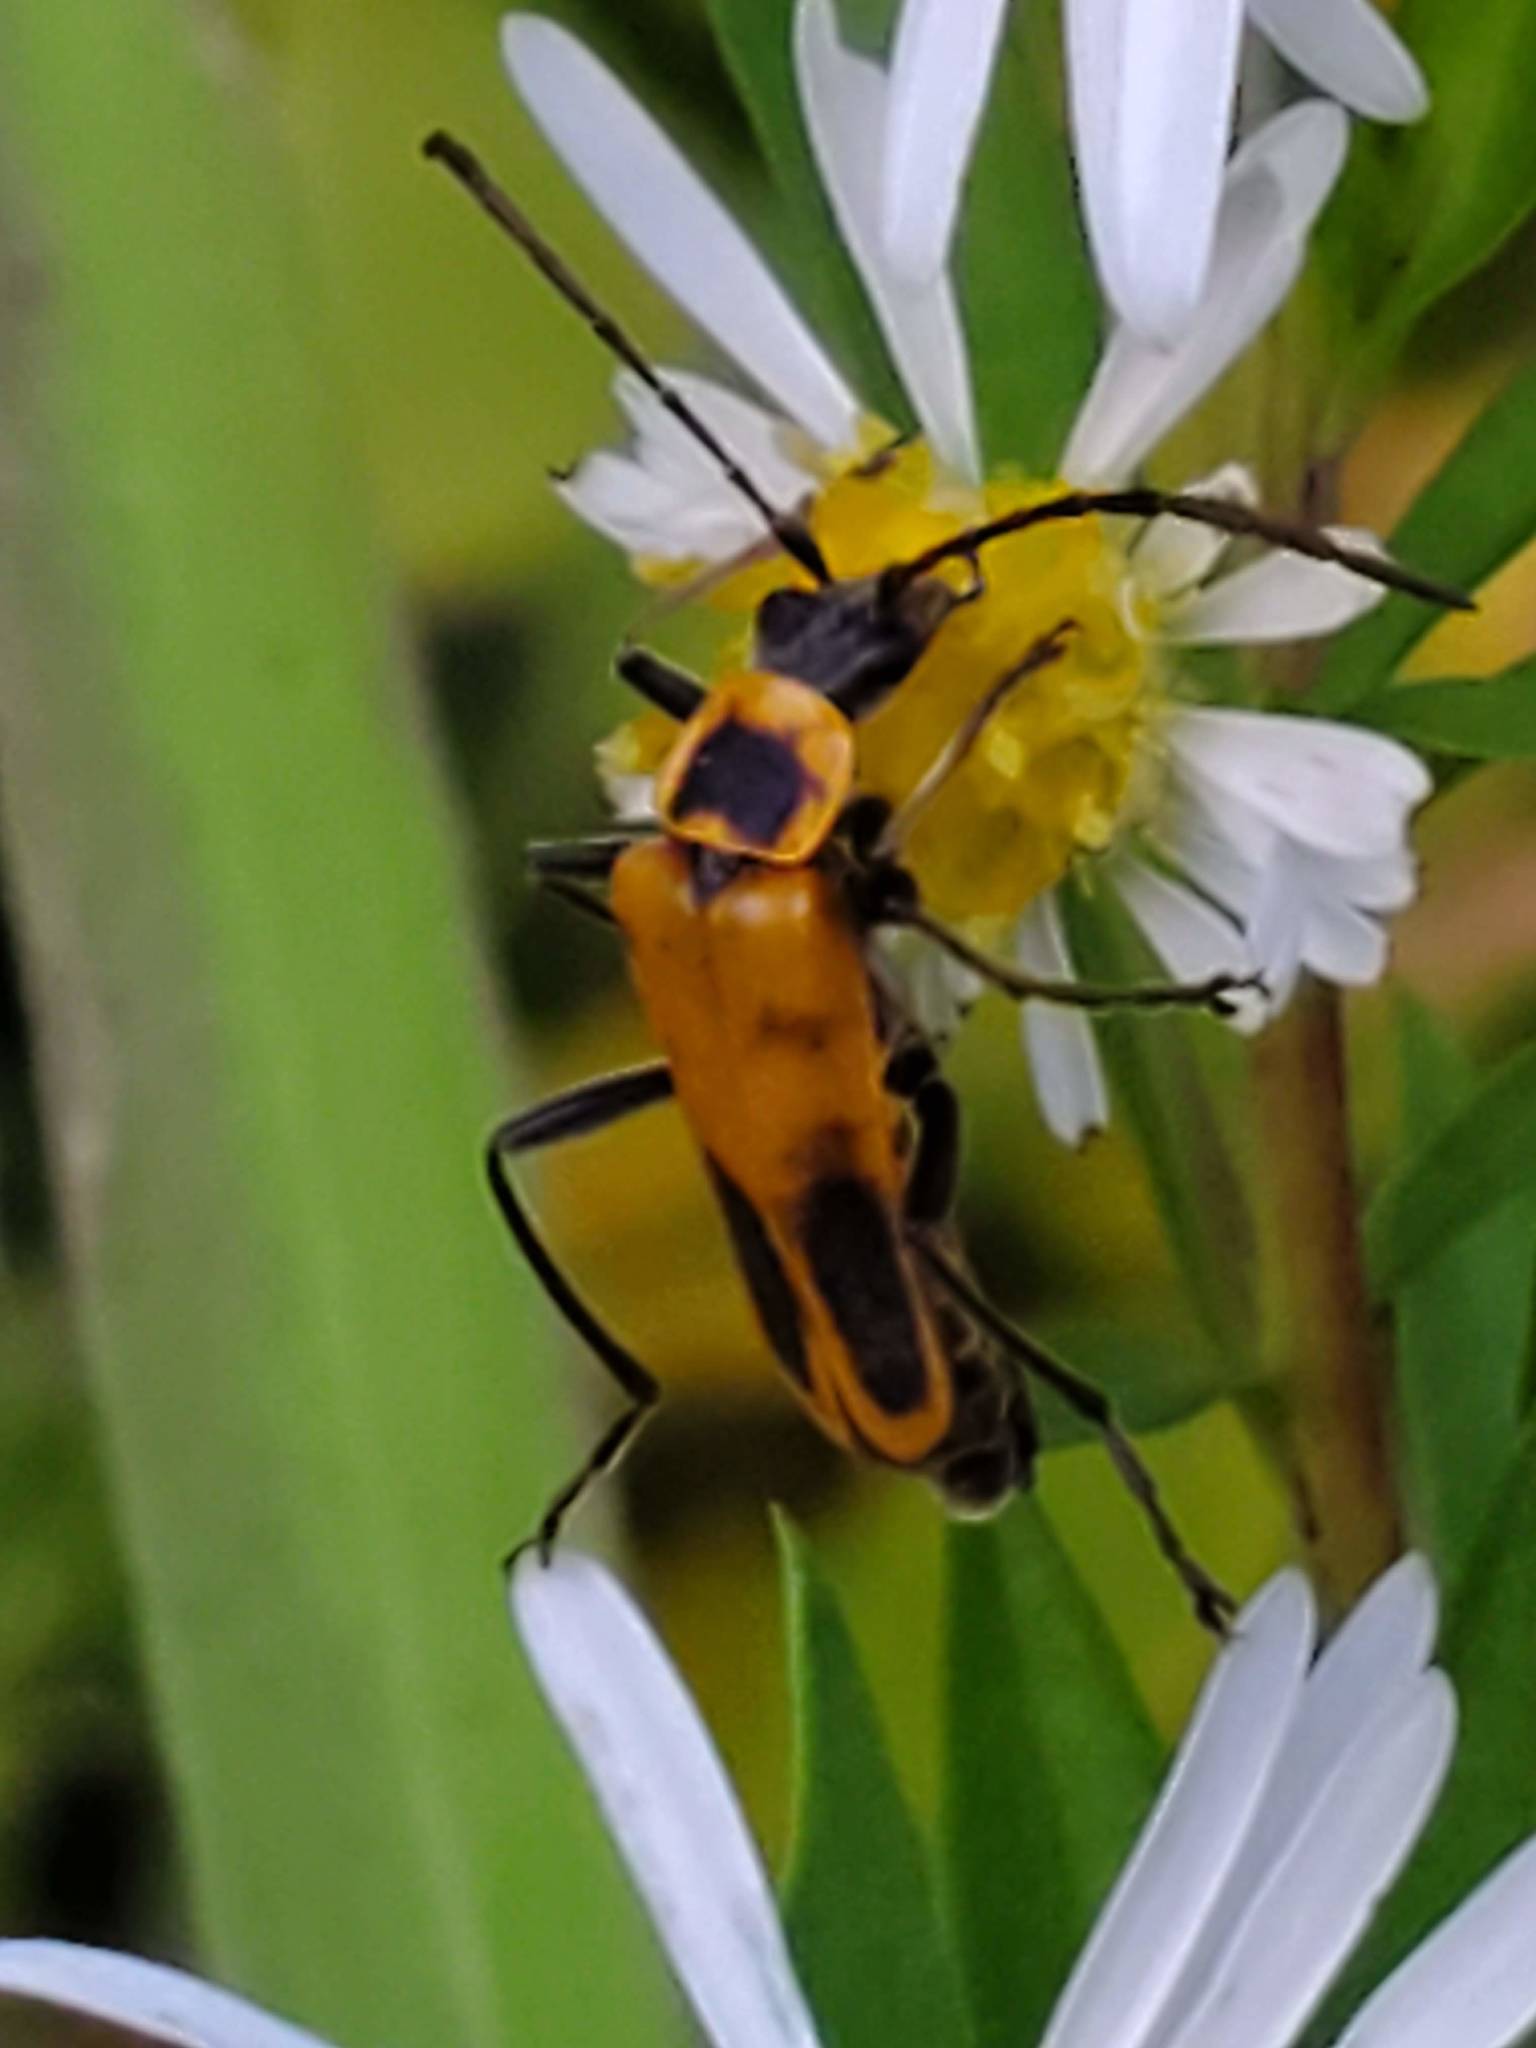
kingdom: Animalia
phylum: Arthropoda
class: Insecta
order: Coleoptera
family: Cantharidae
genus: Chauliognathus
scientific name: Chauliognathus pensylvanicus
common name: Goldenrod soldier beetle
